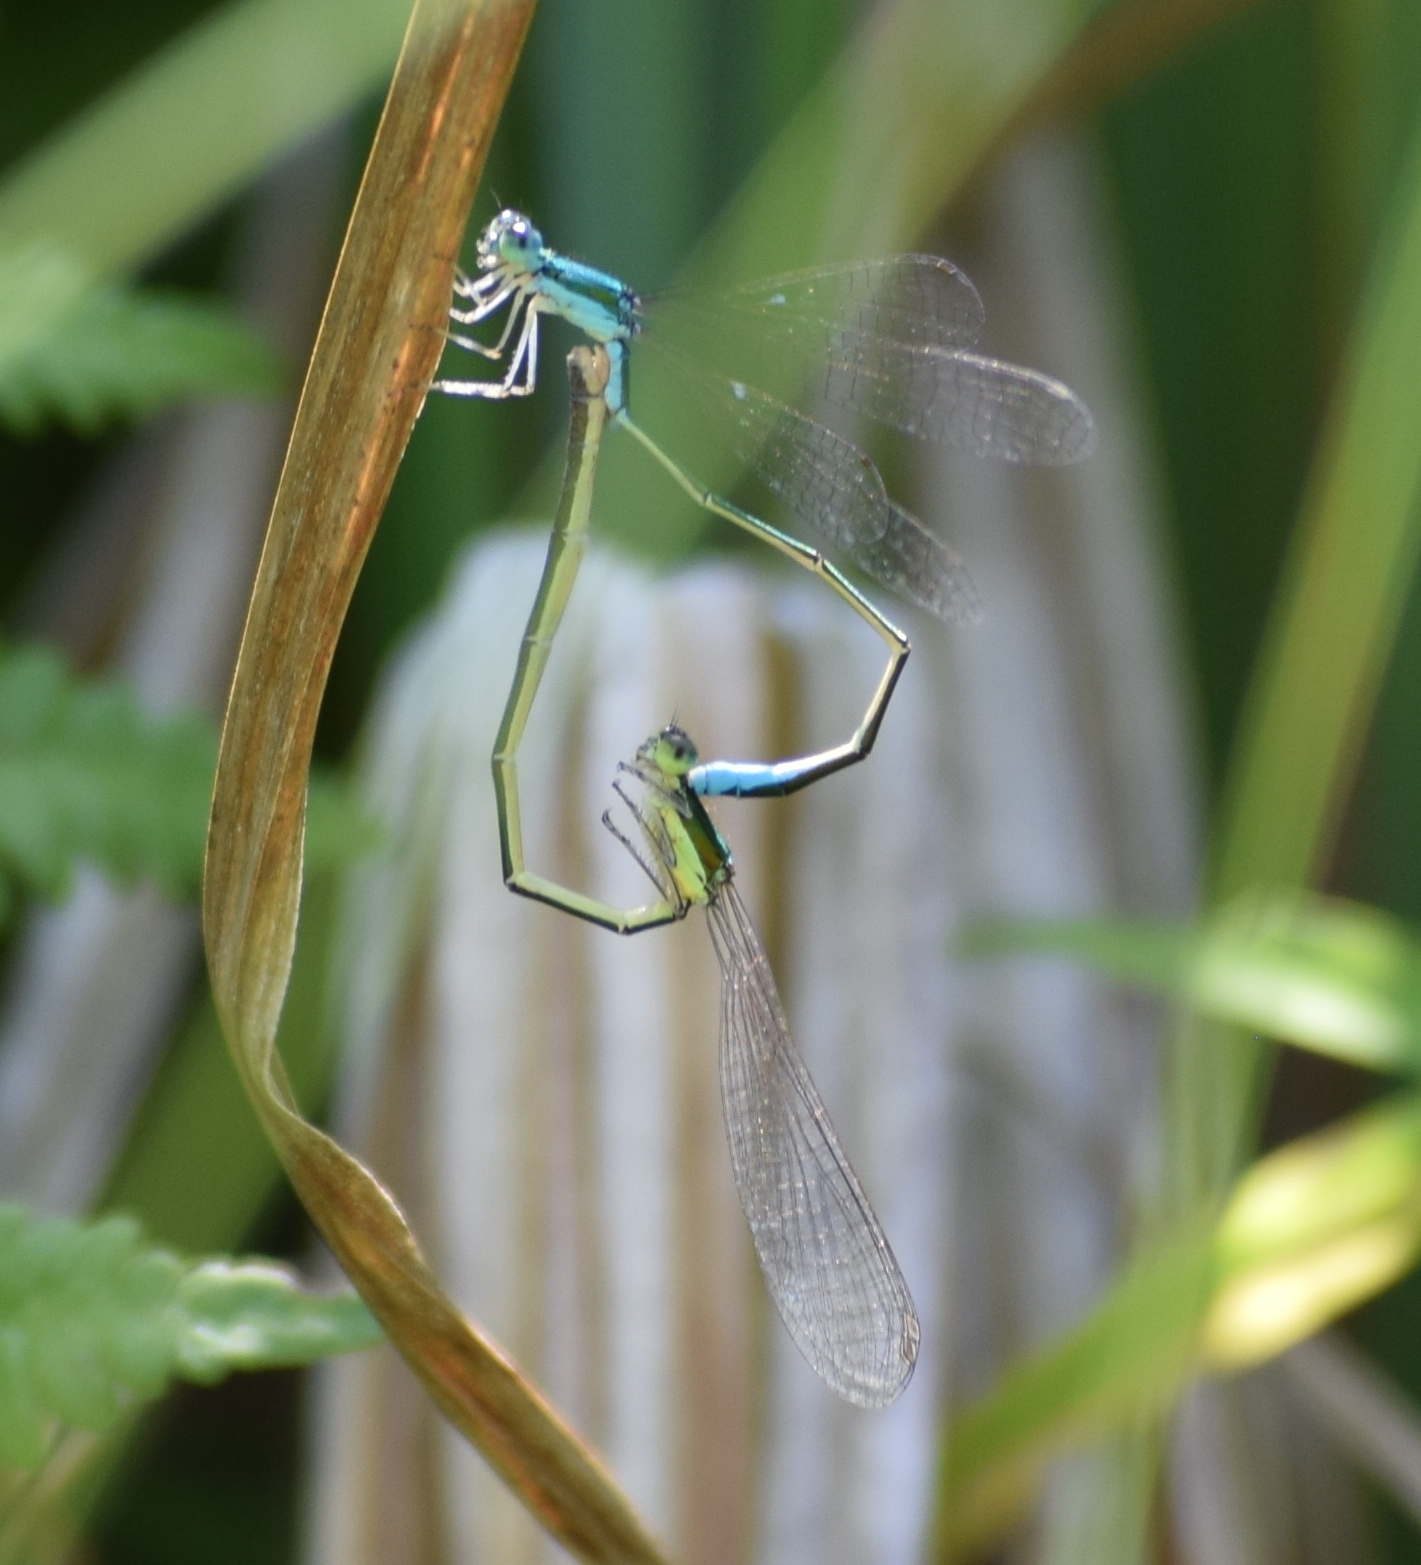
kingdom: Animalia
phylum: Arthropoda
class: Insecta
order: Odonata
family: Coenagrionidae
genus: Nehalennia
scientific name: Nehalennia irene
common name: Sedge sprite
